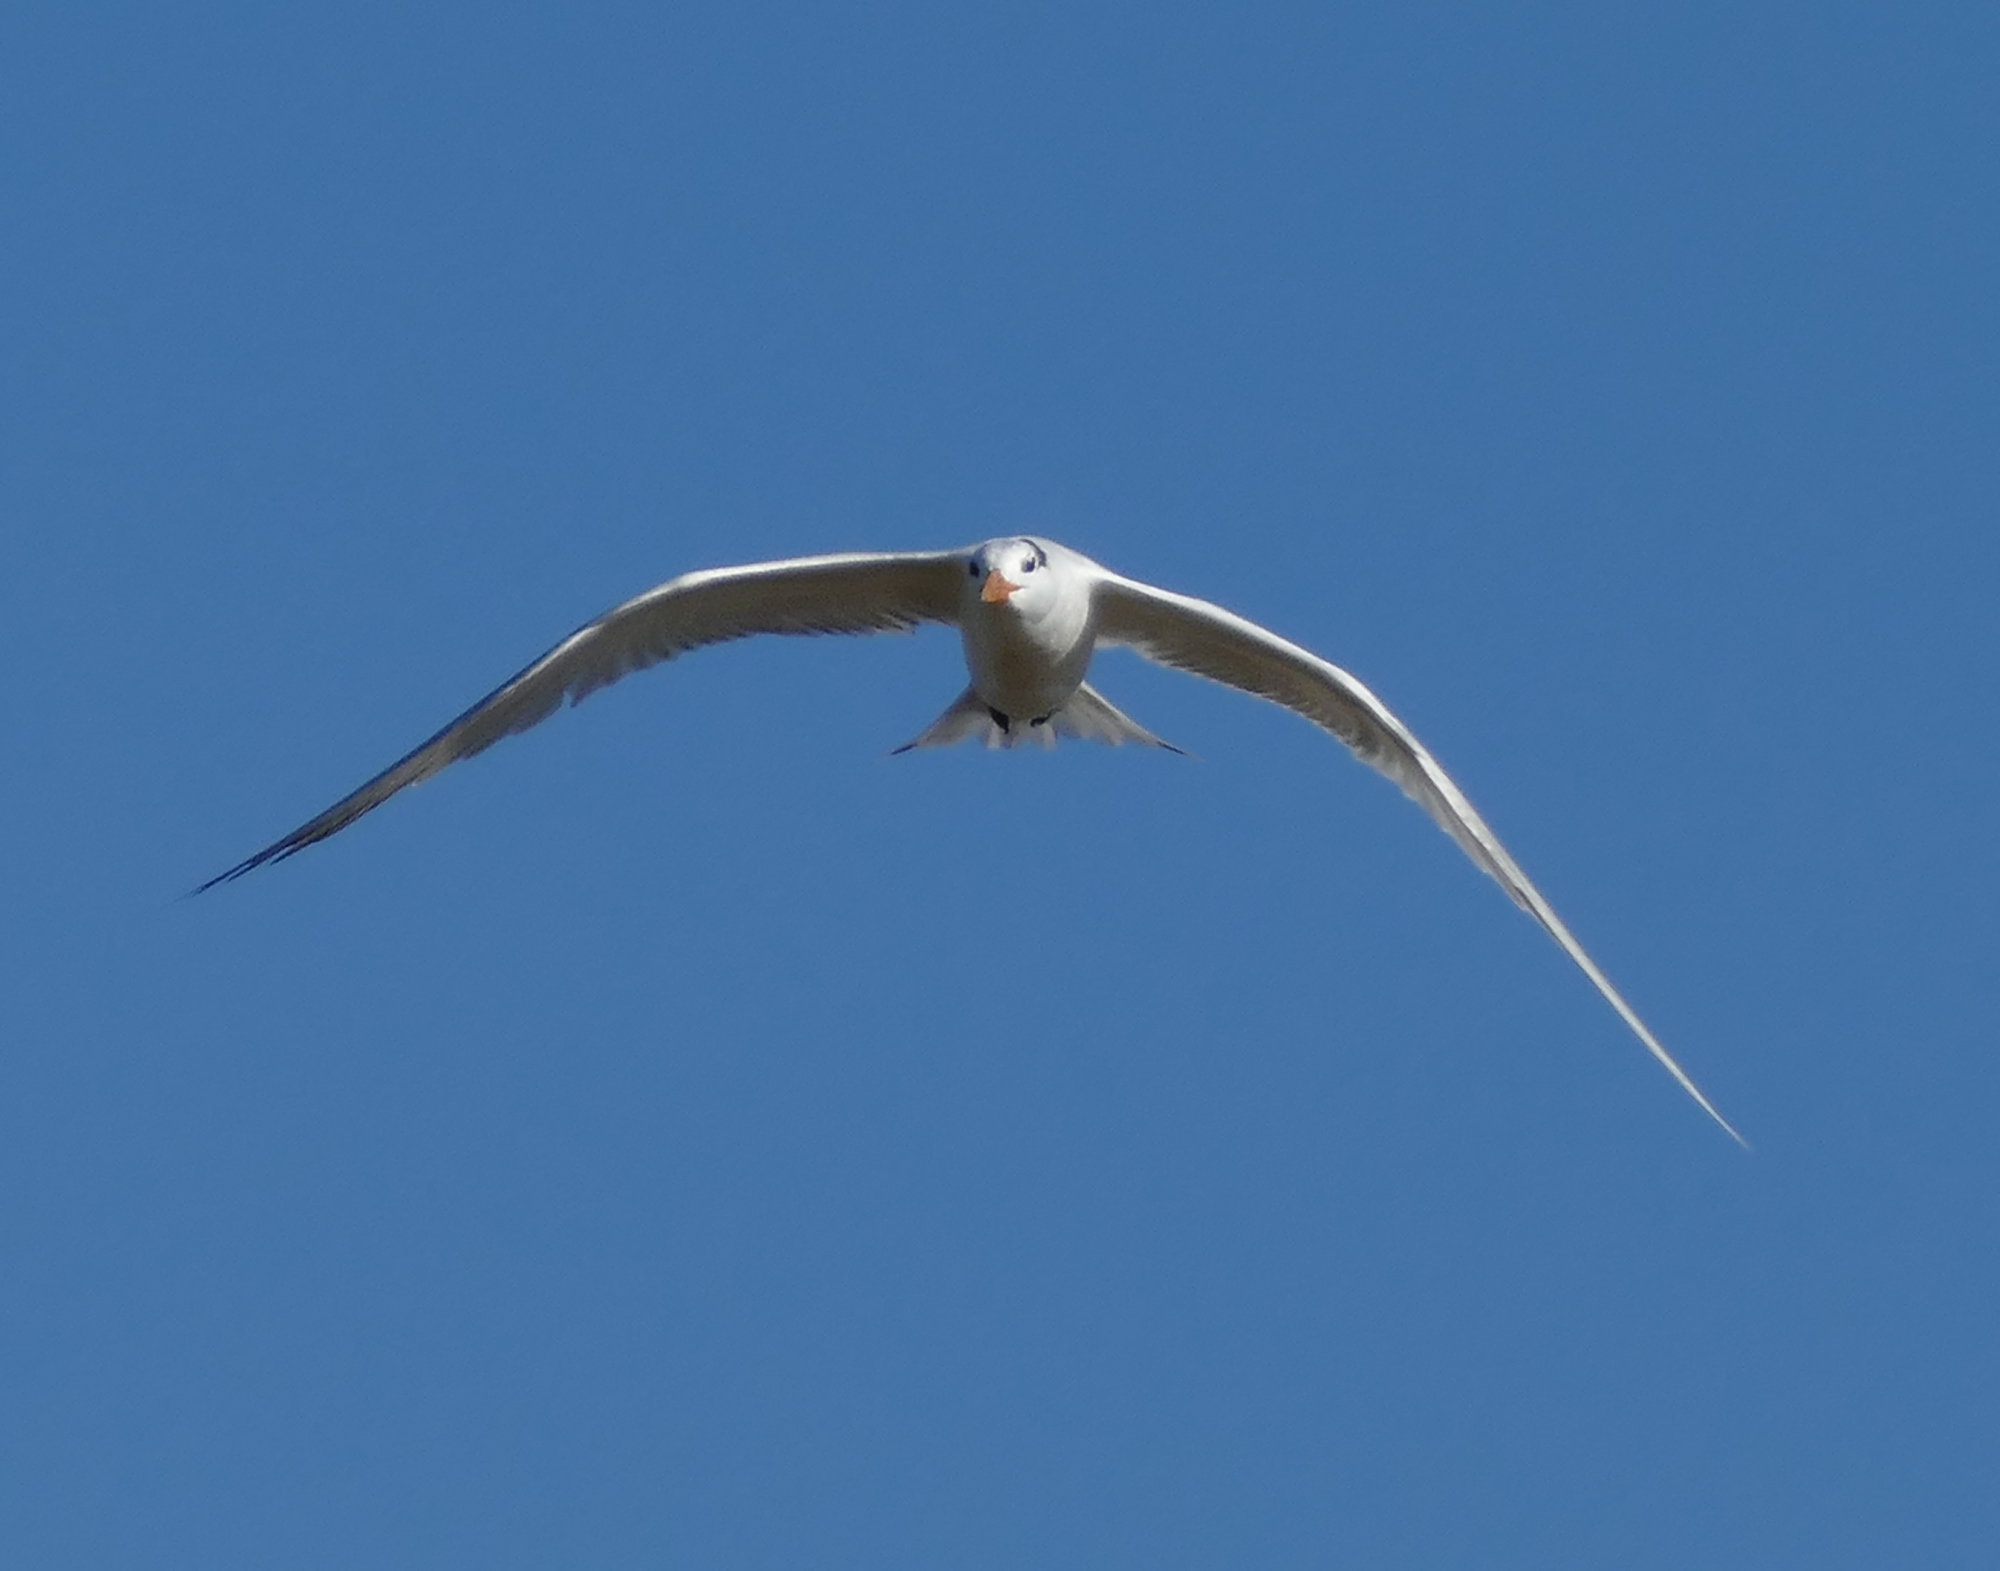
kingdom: Animalia
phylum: Chordata
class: Aves
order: Charadriiformes
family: Laridae
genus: Thalasseus
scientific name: Thalasseus maximus
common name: Royal tern
